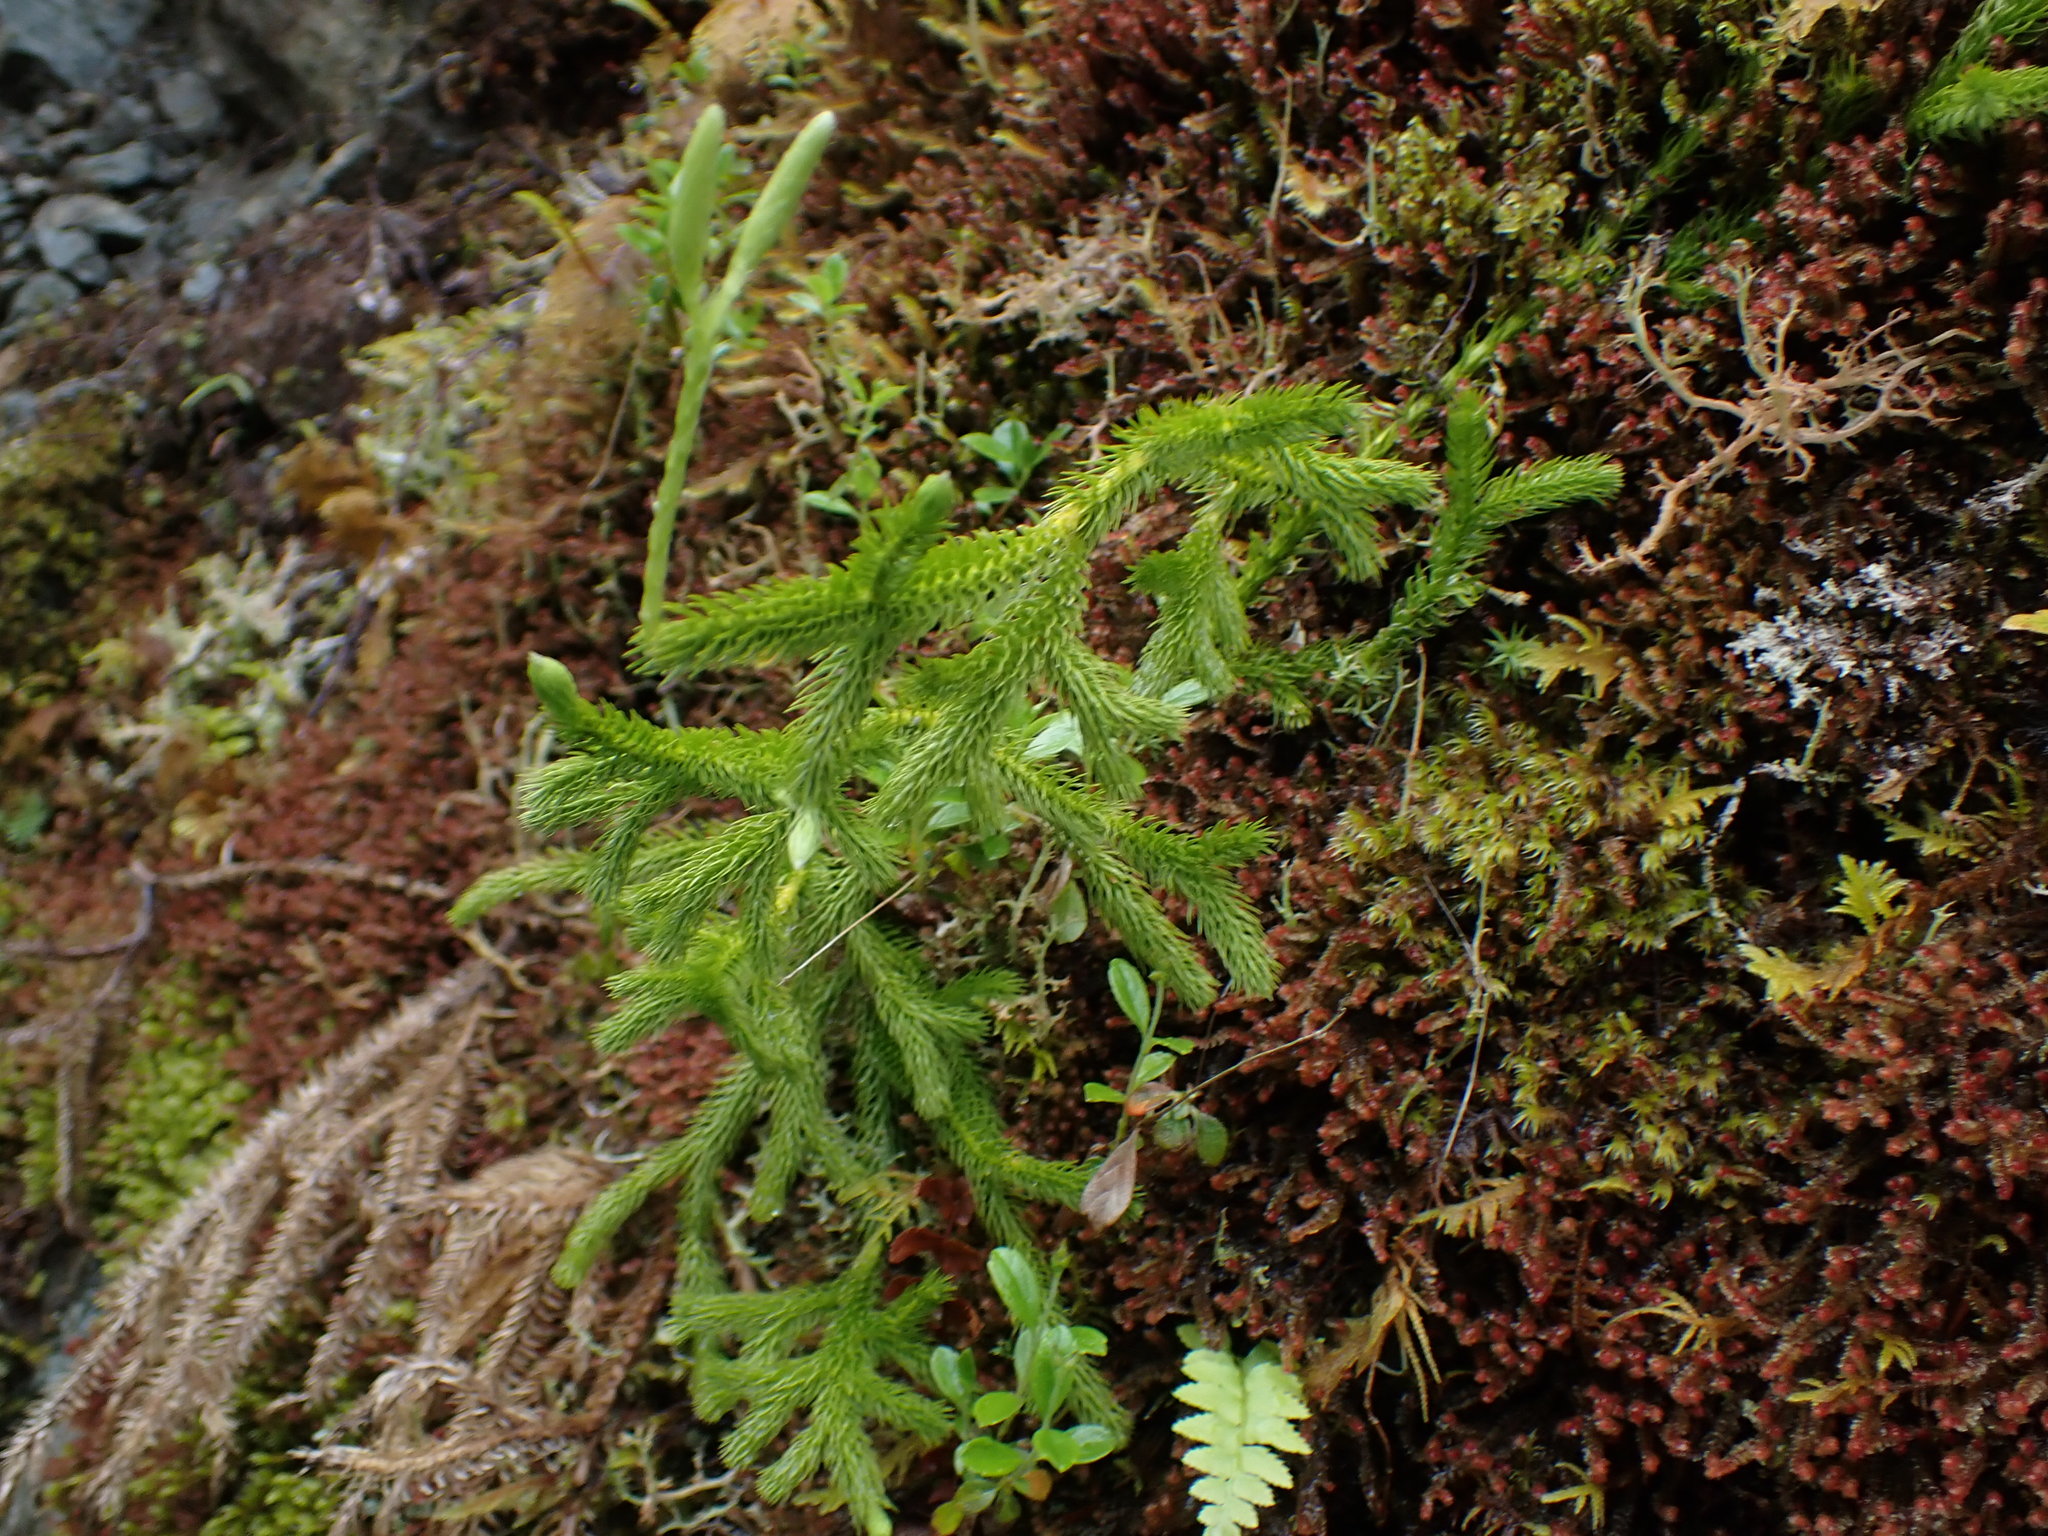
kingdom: Plantae
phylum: Tracheophyta
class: Lycopodiopsida
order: Lycopodiales
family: Lycopodiaceae
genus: Lycopodium
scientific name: Lycopodium clavatum
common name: Stag's-horn clubmoss
